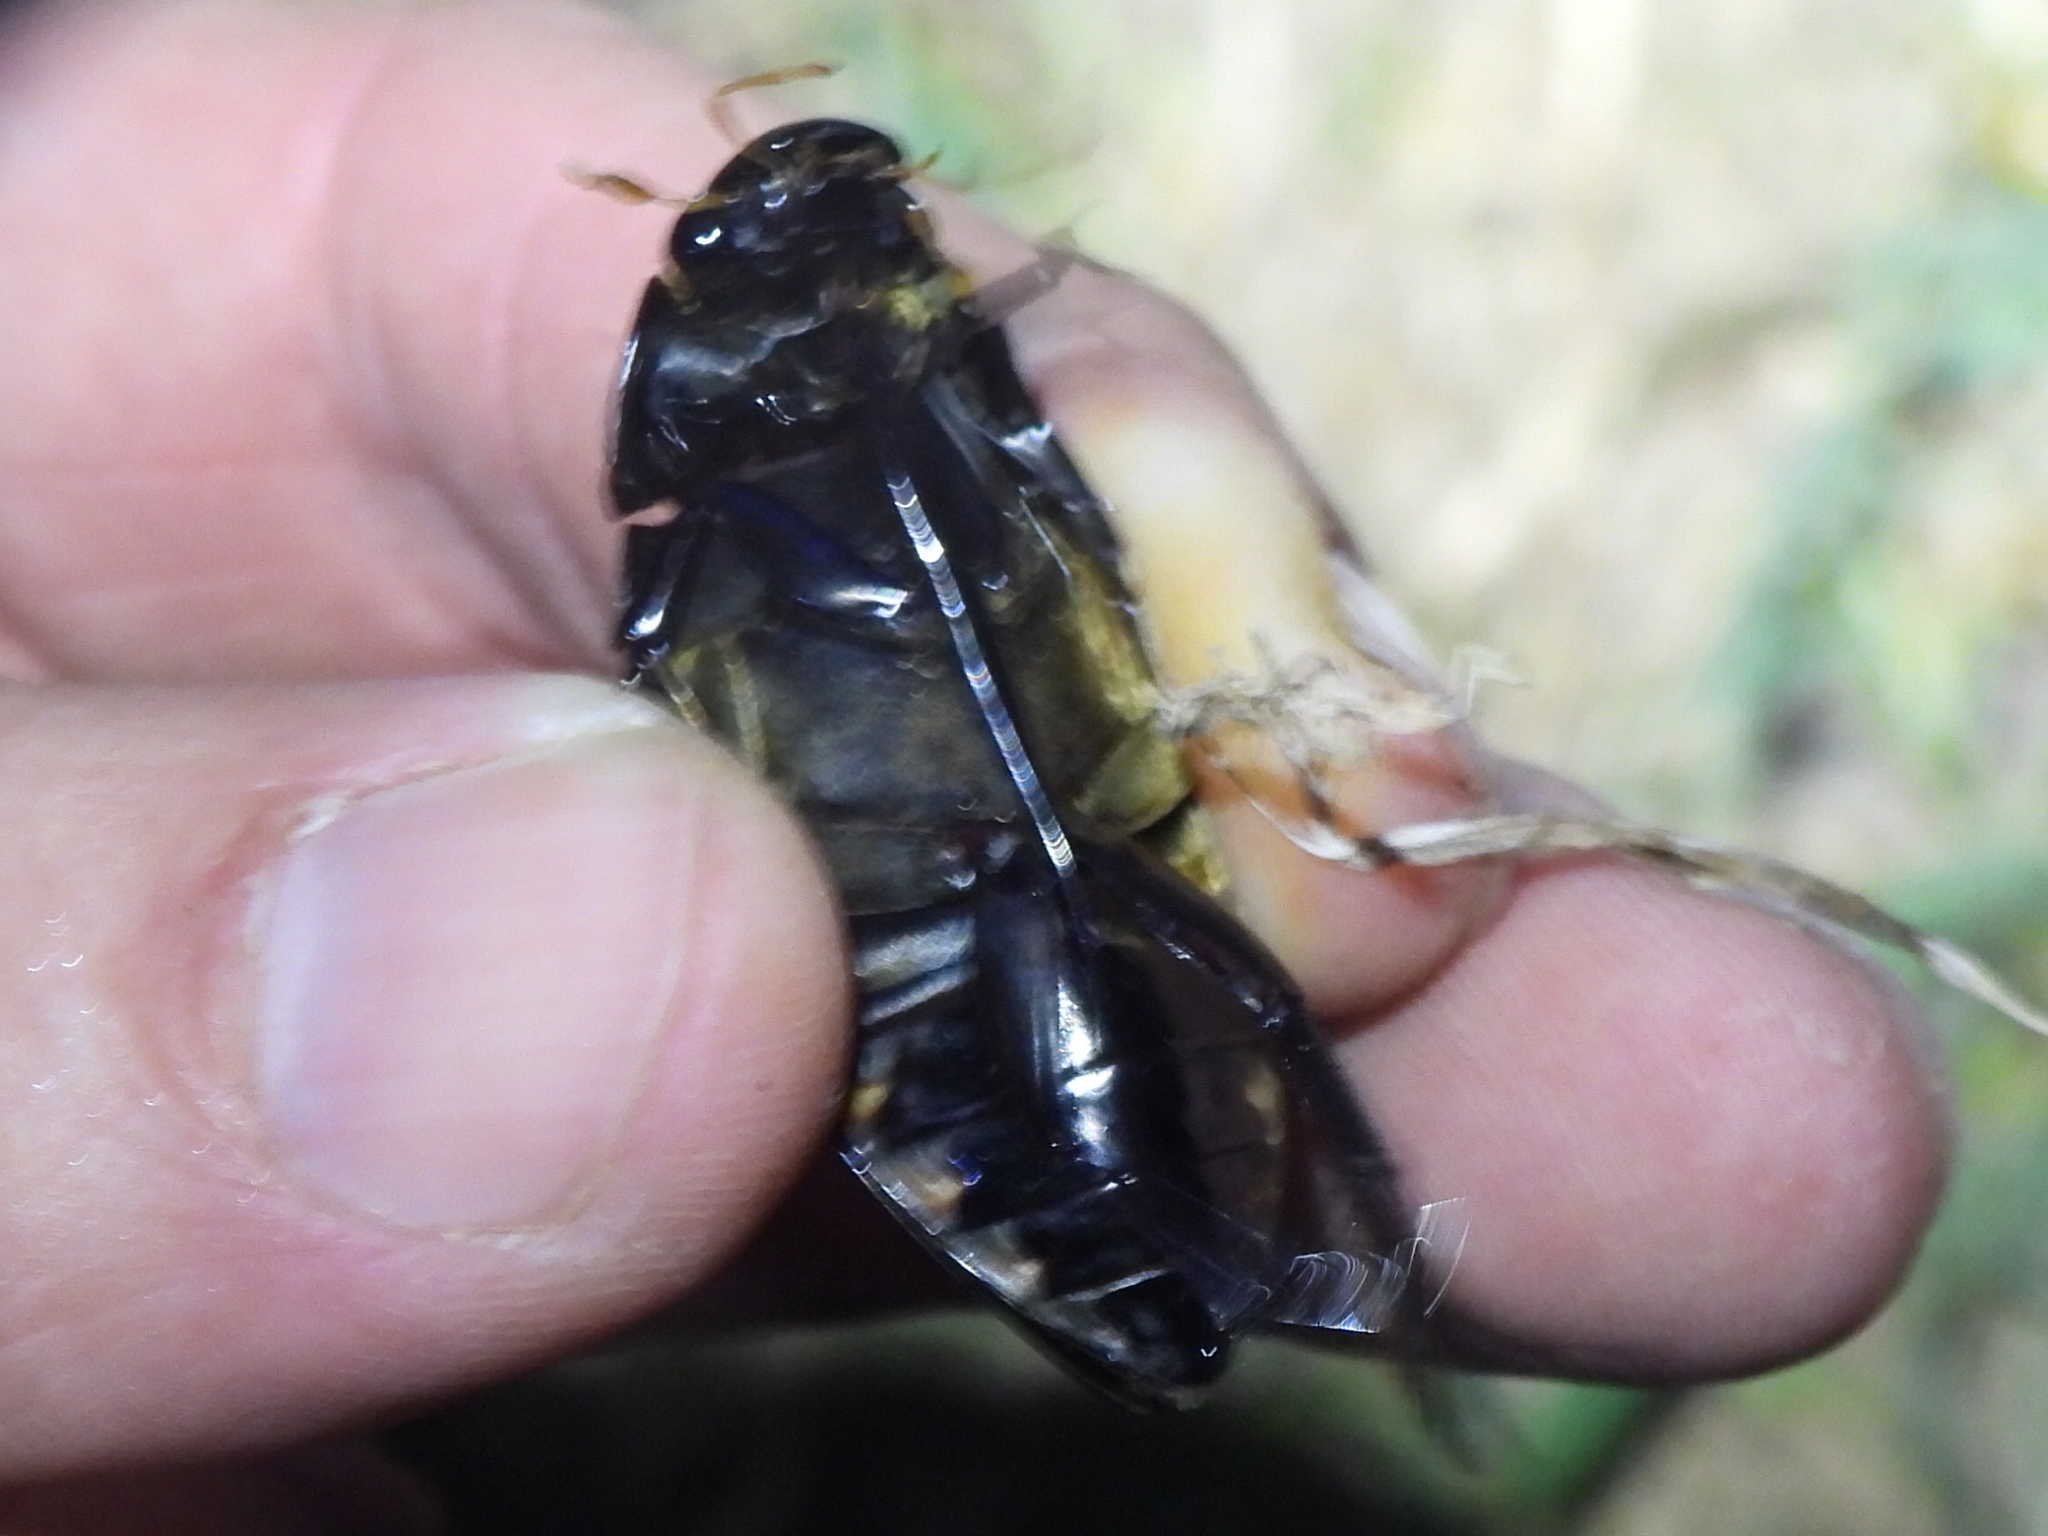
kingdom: Animalia
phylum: Arthropoda
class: Insecta
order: Coleoptera
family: Hydrophilidae
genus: Hydrophilus
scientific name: Hydrophilus triangularis
